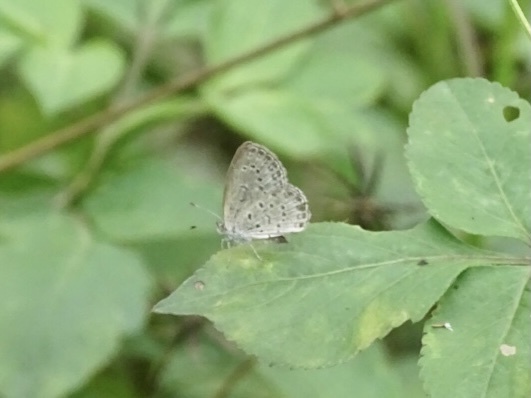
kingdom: Animalia
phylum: Arthropoda
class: Insecta
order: Lepidoptera
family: Lycaenidae
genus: Pseudozizeeria
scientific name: Pseudozizeeria maha
